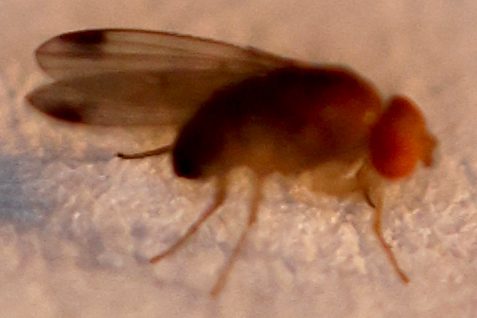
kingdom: Animalia
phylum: Arthropoda
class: Insecta
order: Diptera
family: Drosophilidae
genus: Drosophila
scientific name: Drosophila suzukii
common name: Spotted-wing drosophila
